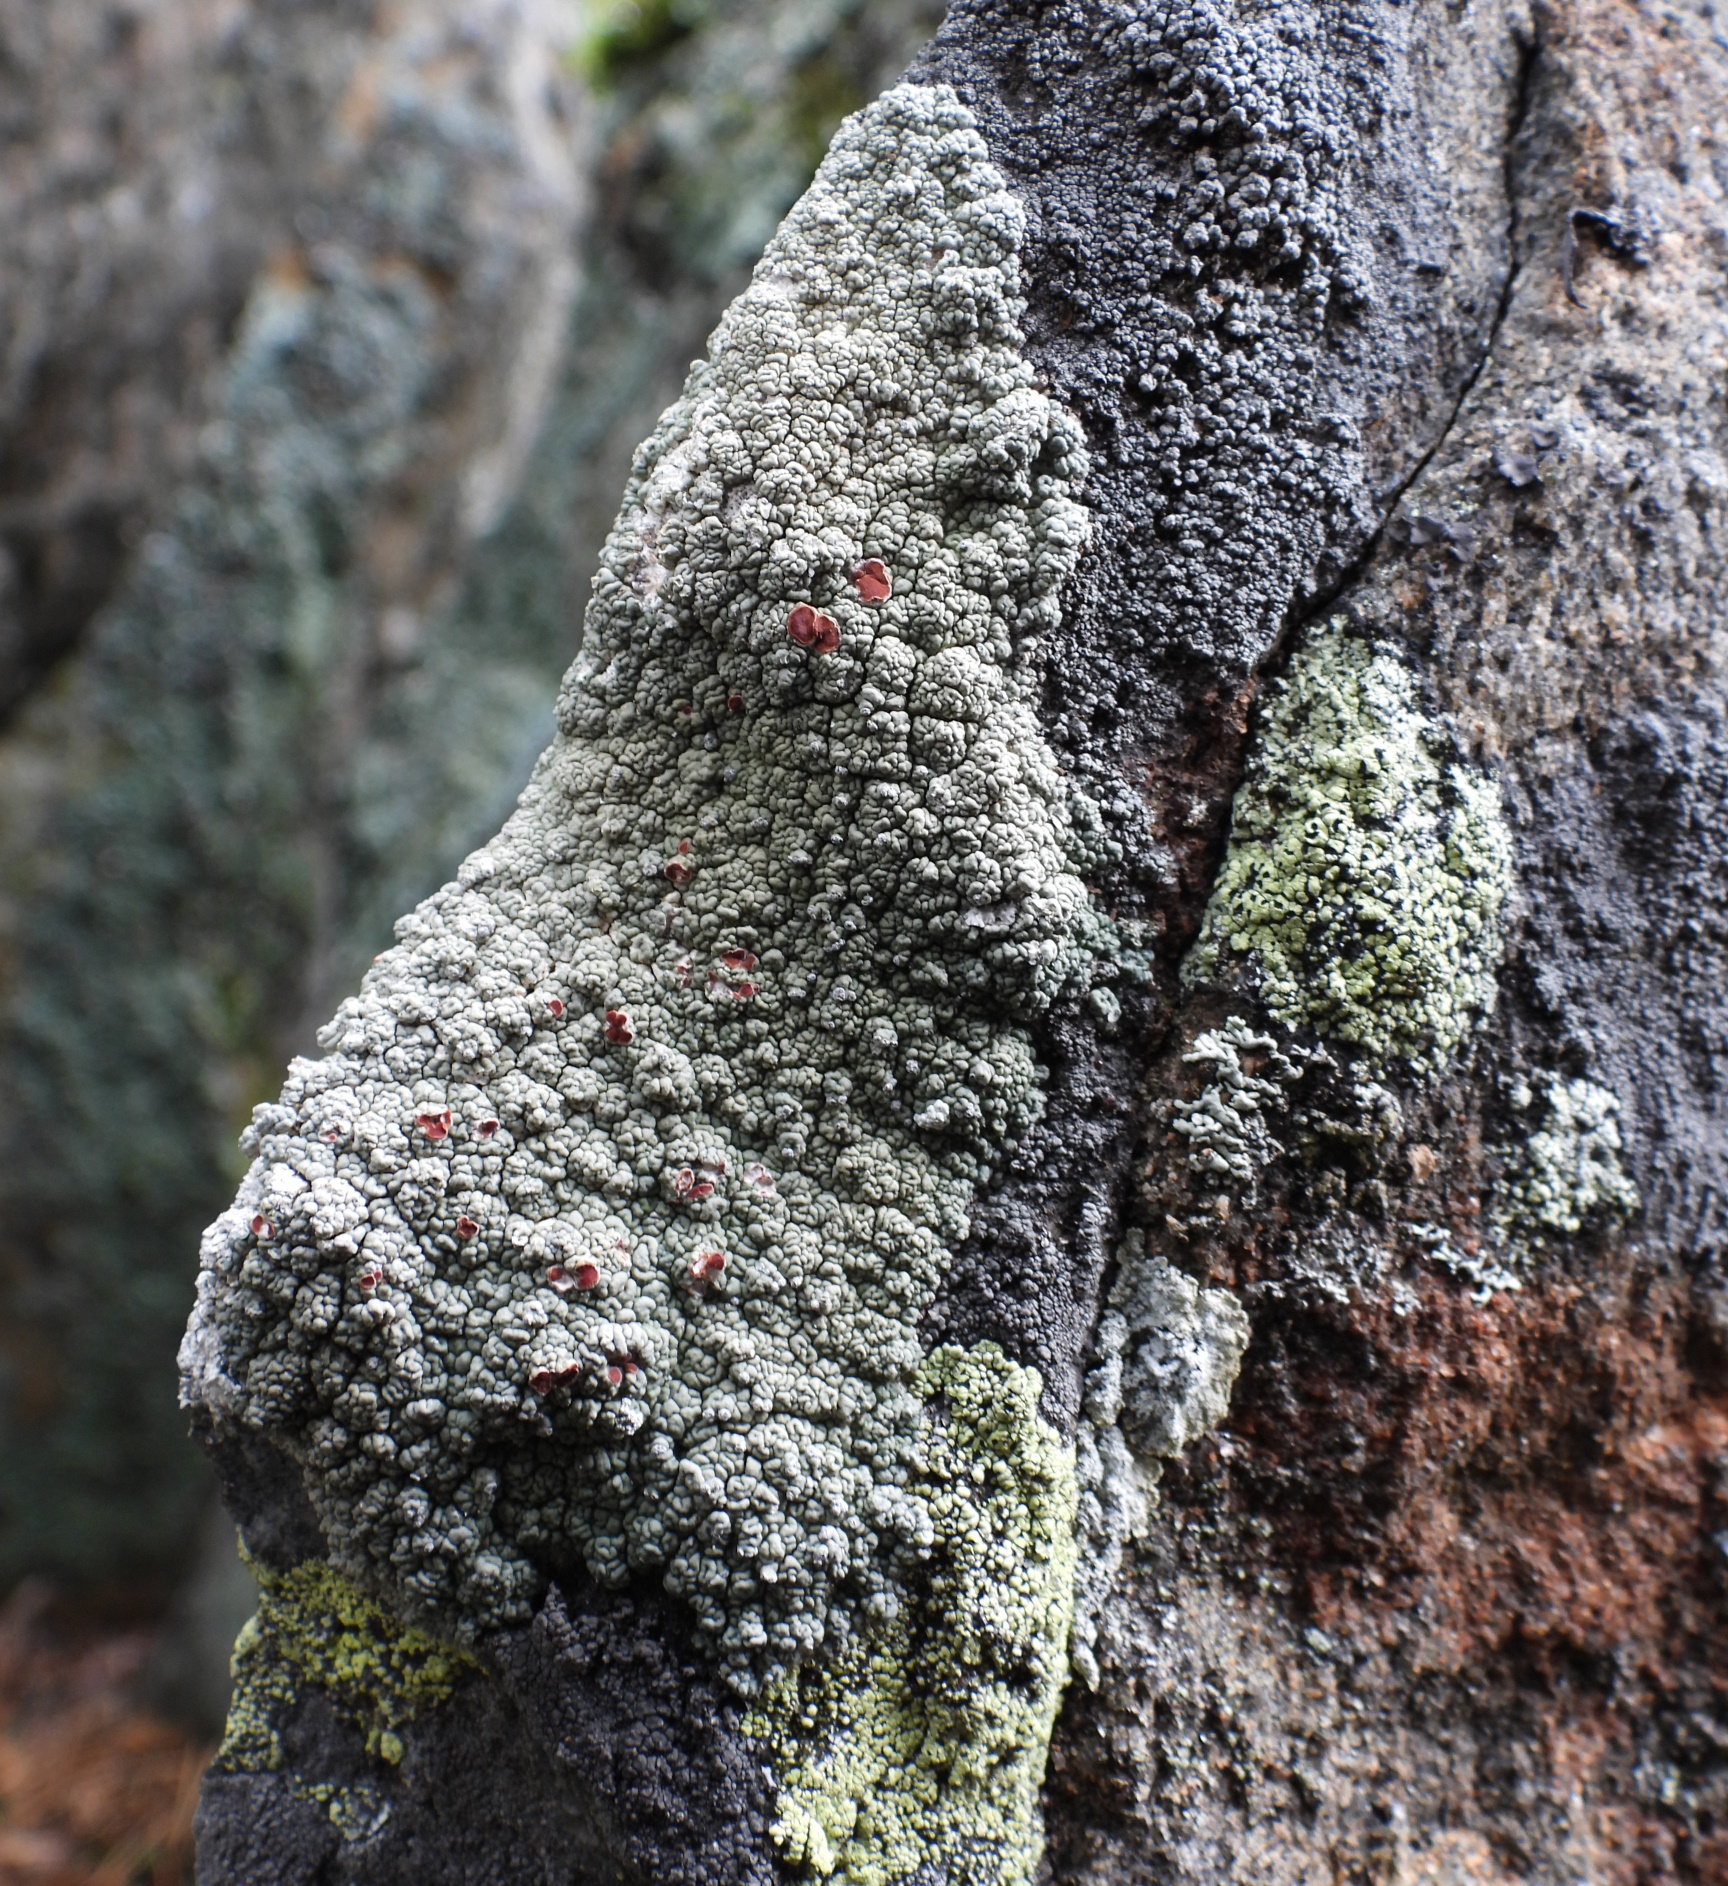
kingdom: Fungi
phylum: Ascomycota
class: Lecanoromycetes
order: Umbilicariales
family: Ophioparmaceae
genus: Ophioparma
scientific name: Ophioparma ventosa
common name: Blood-spot
